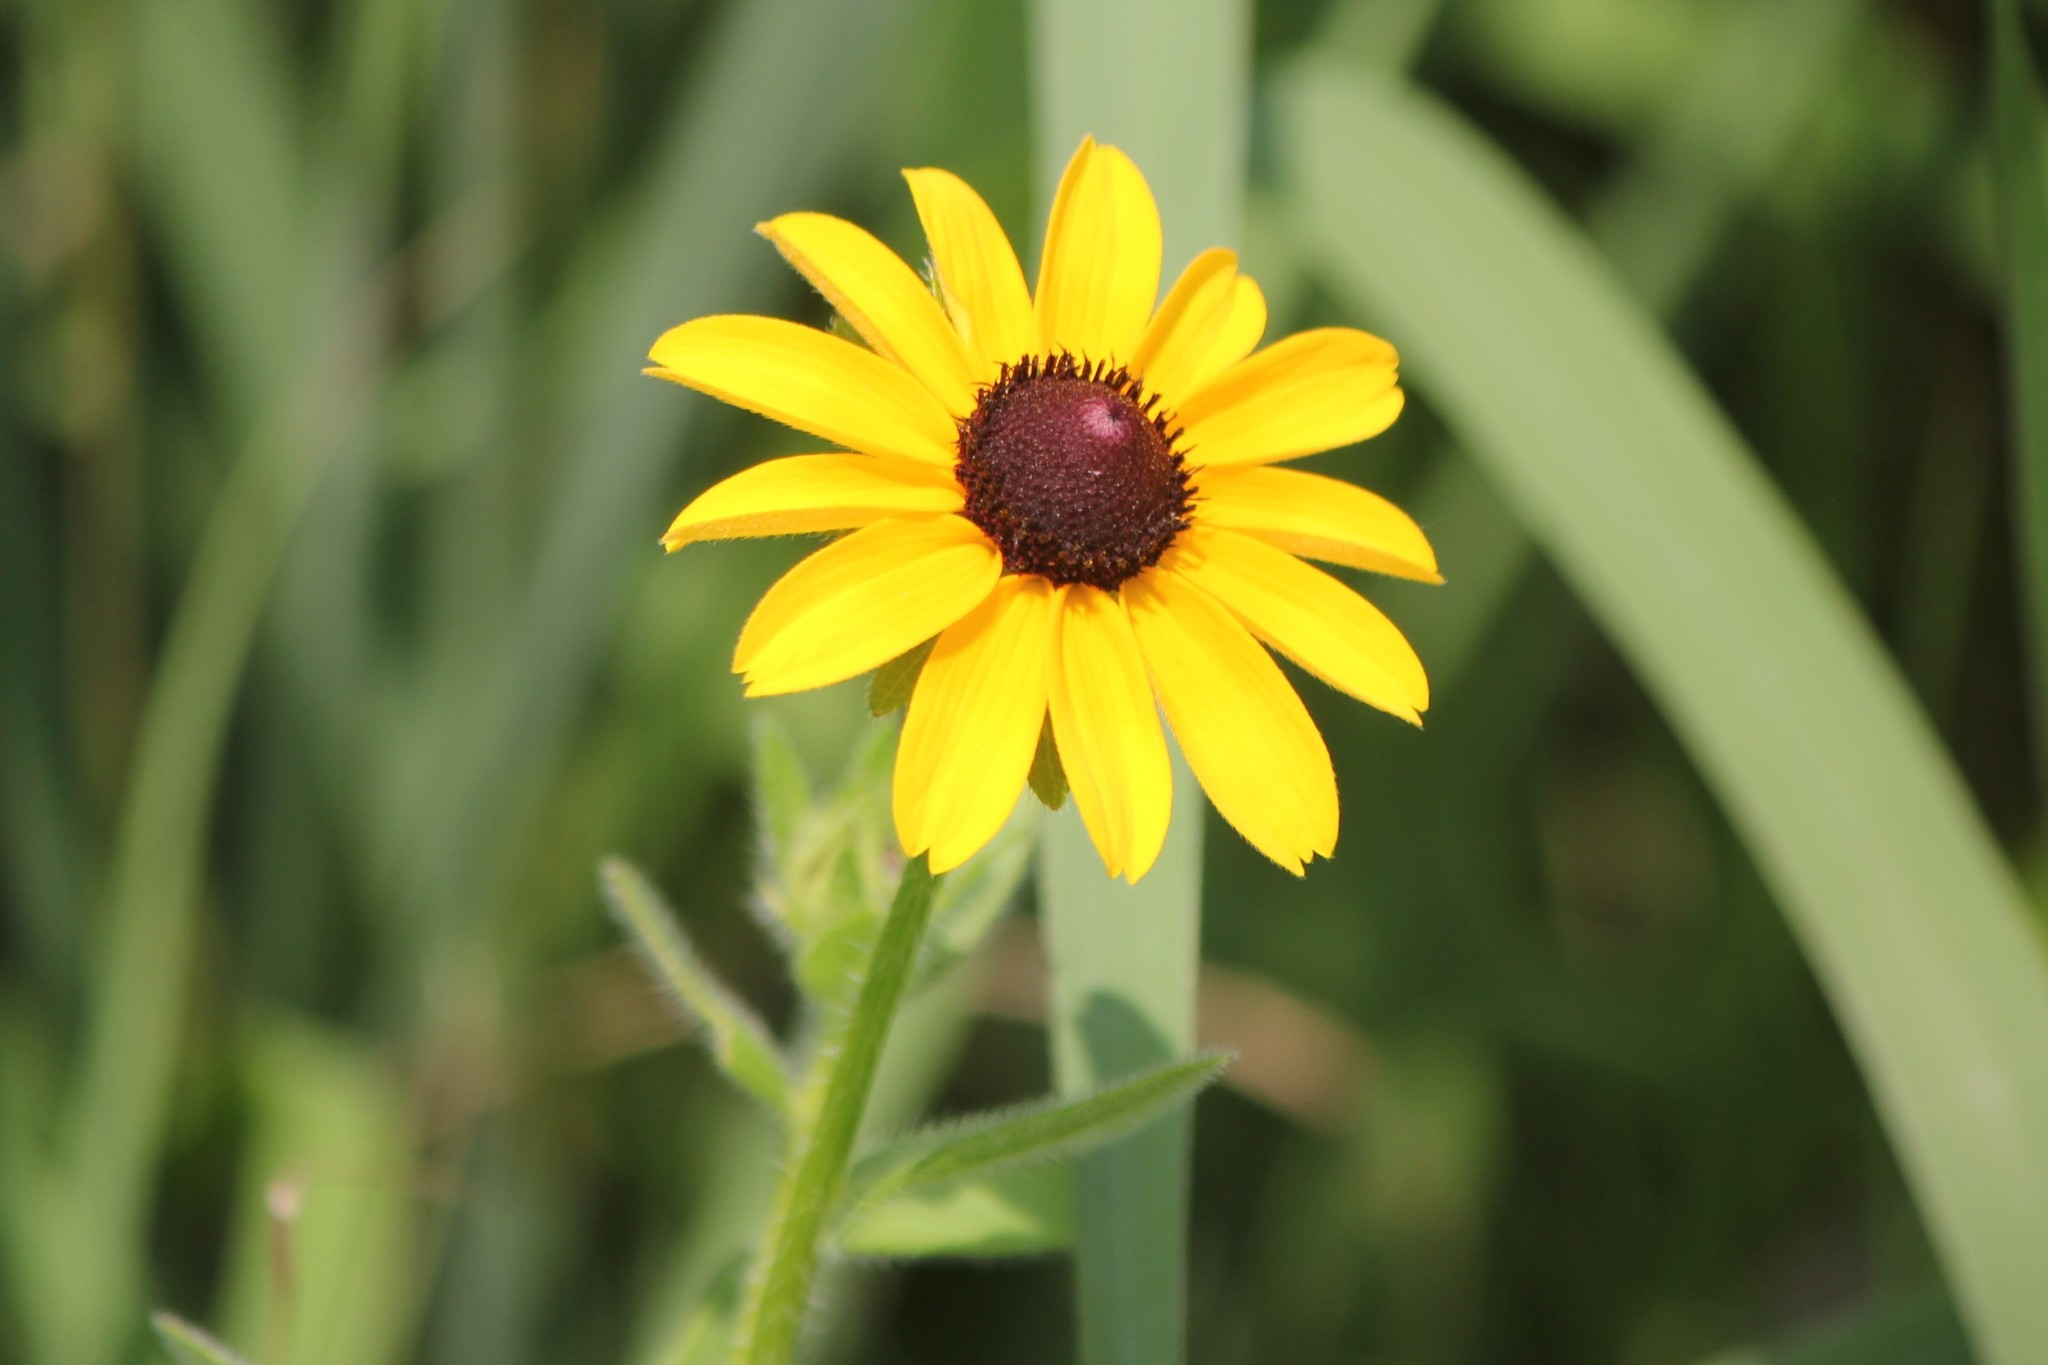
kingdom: Plantae
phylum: Tracheophyta
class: Magnoliopsida
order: Asterales
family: Asteraceae
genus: Rudbeckia
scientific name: Rudbeckia hirta
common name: Black-eyed-susan
